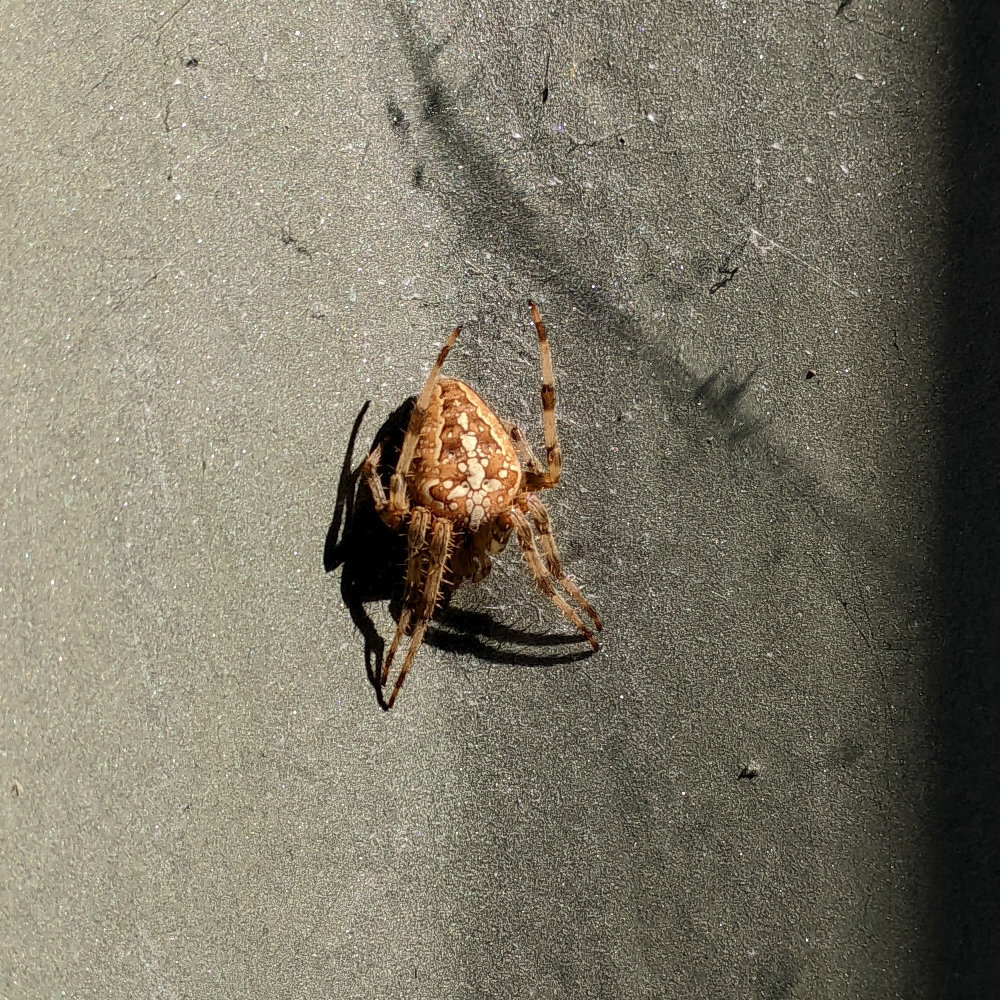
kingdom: Animalia
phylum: Arthropoda
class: Arachnida
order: Araneae
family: Araneidae
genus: Araneus
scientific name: Araneus diadematus
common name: Cross orbweaver
